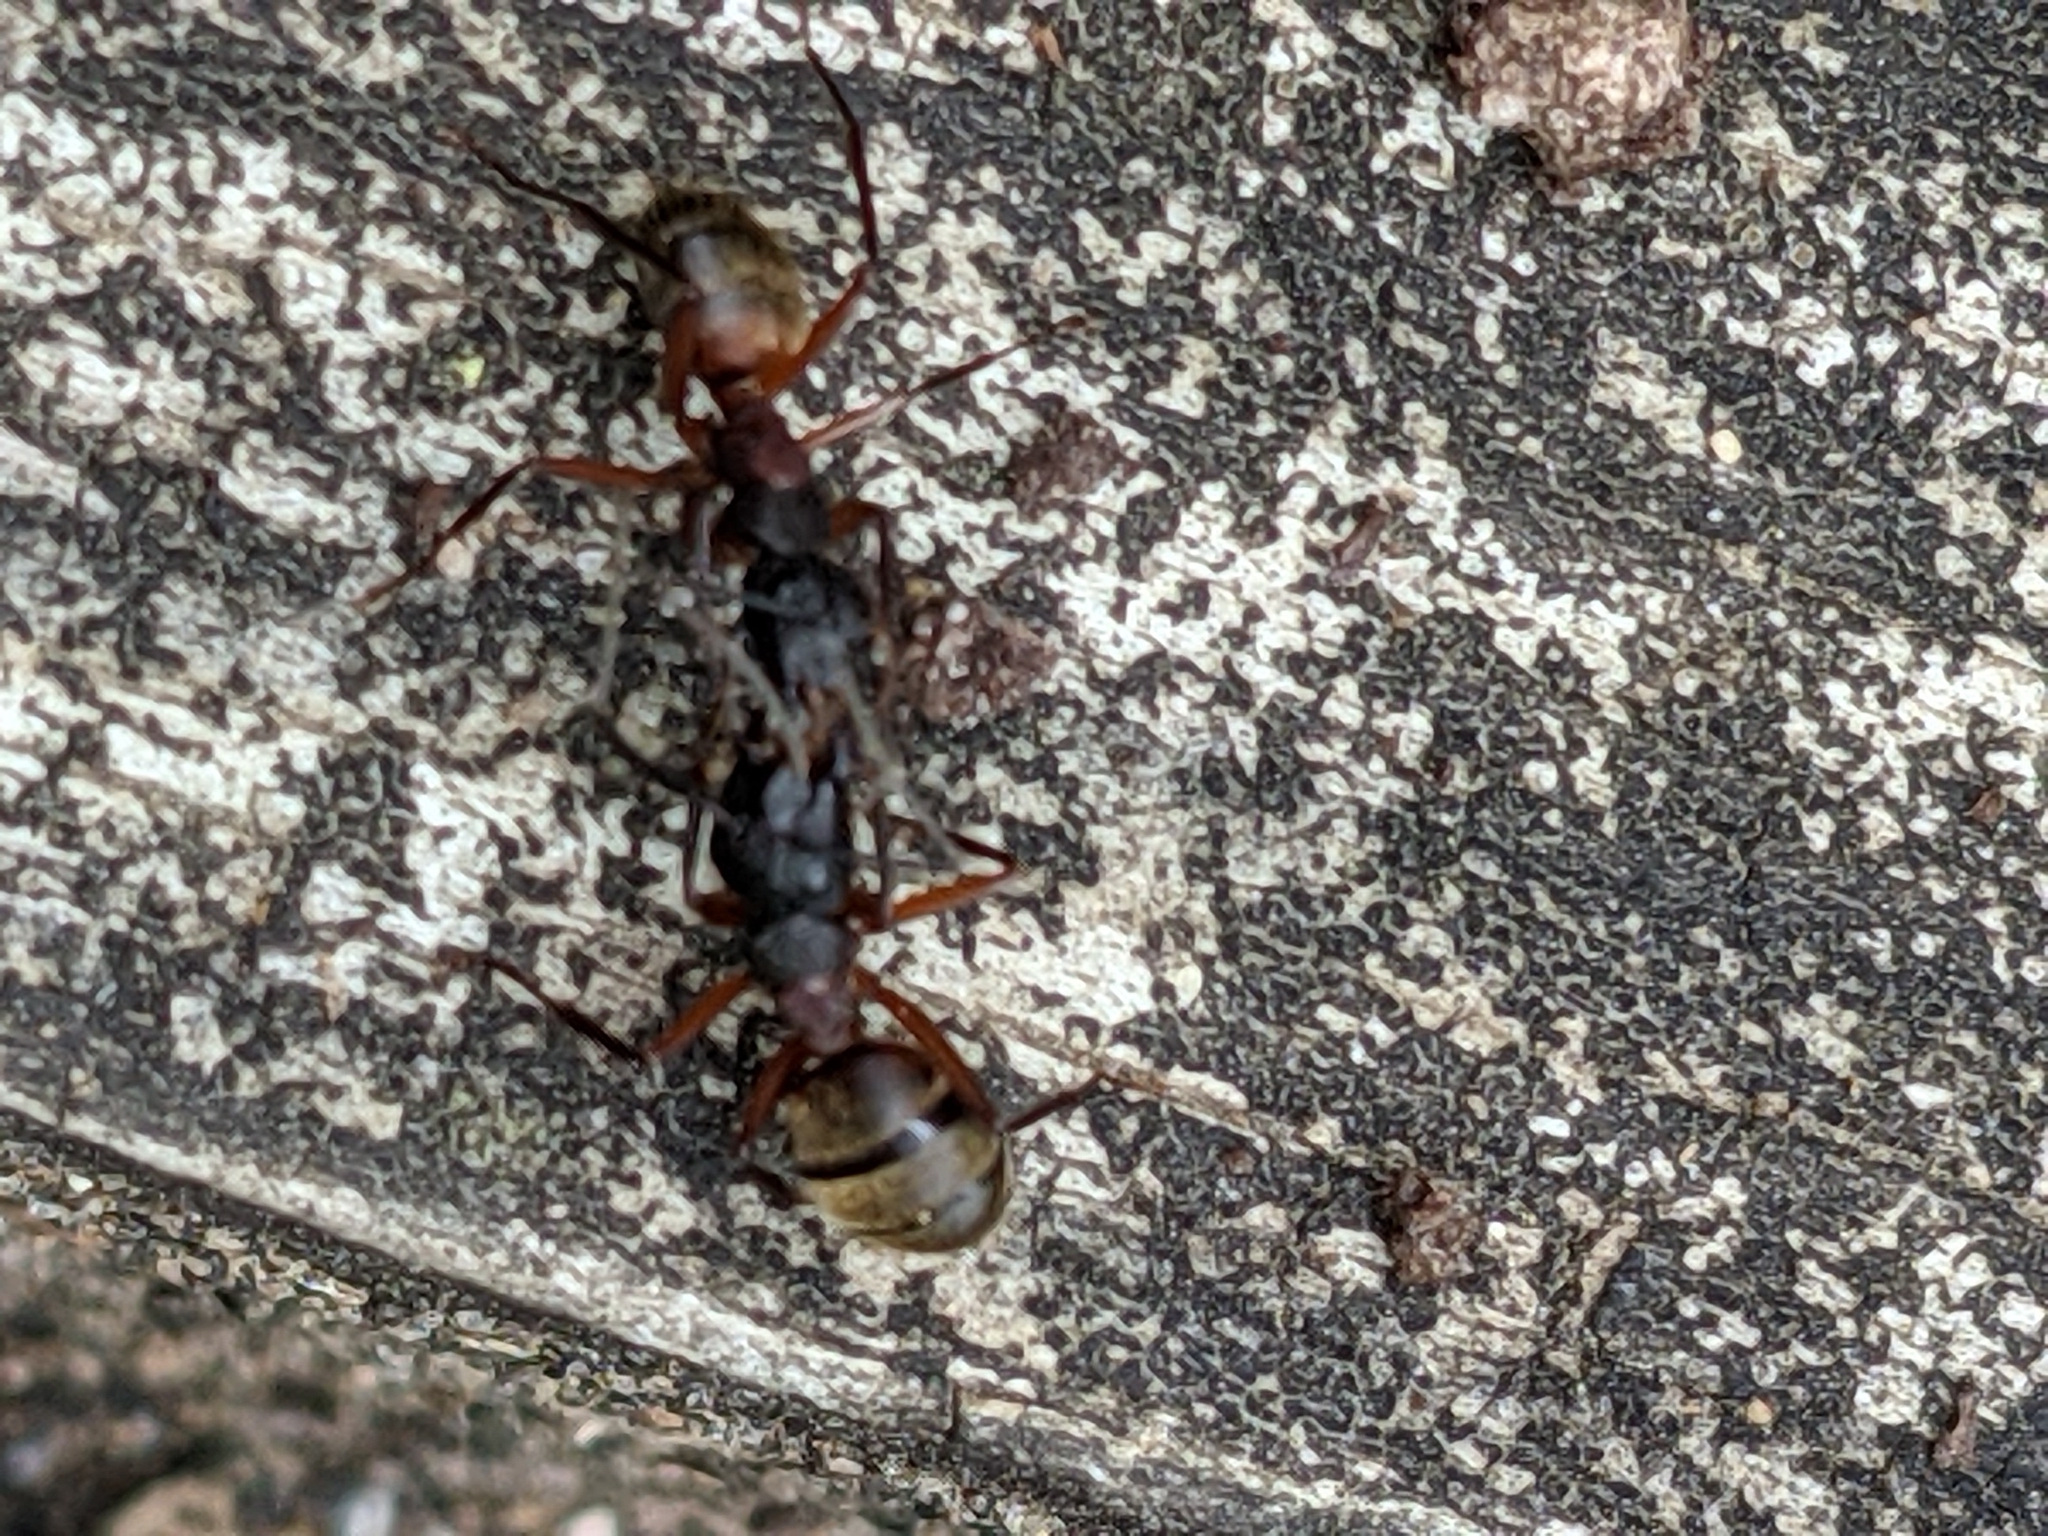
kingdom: Animalia
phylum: Arthropoda
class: Insecta
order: Hymenoptera
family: Formicidae
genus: Camponotus
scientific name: Camponotus chromaiodes
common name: Red carpenter ant
